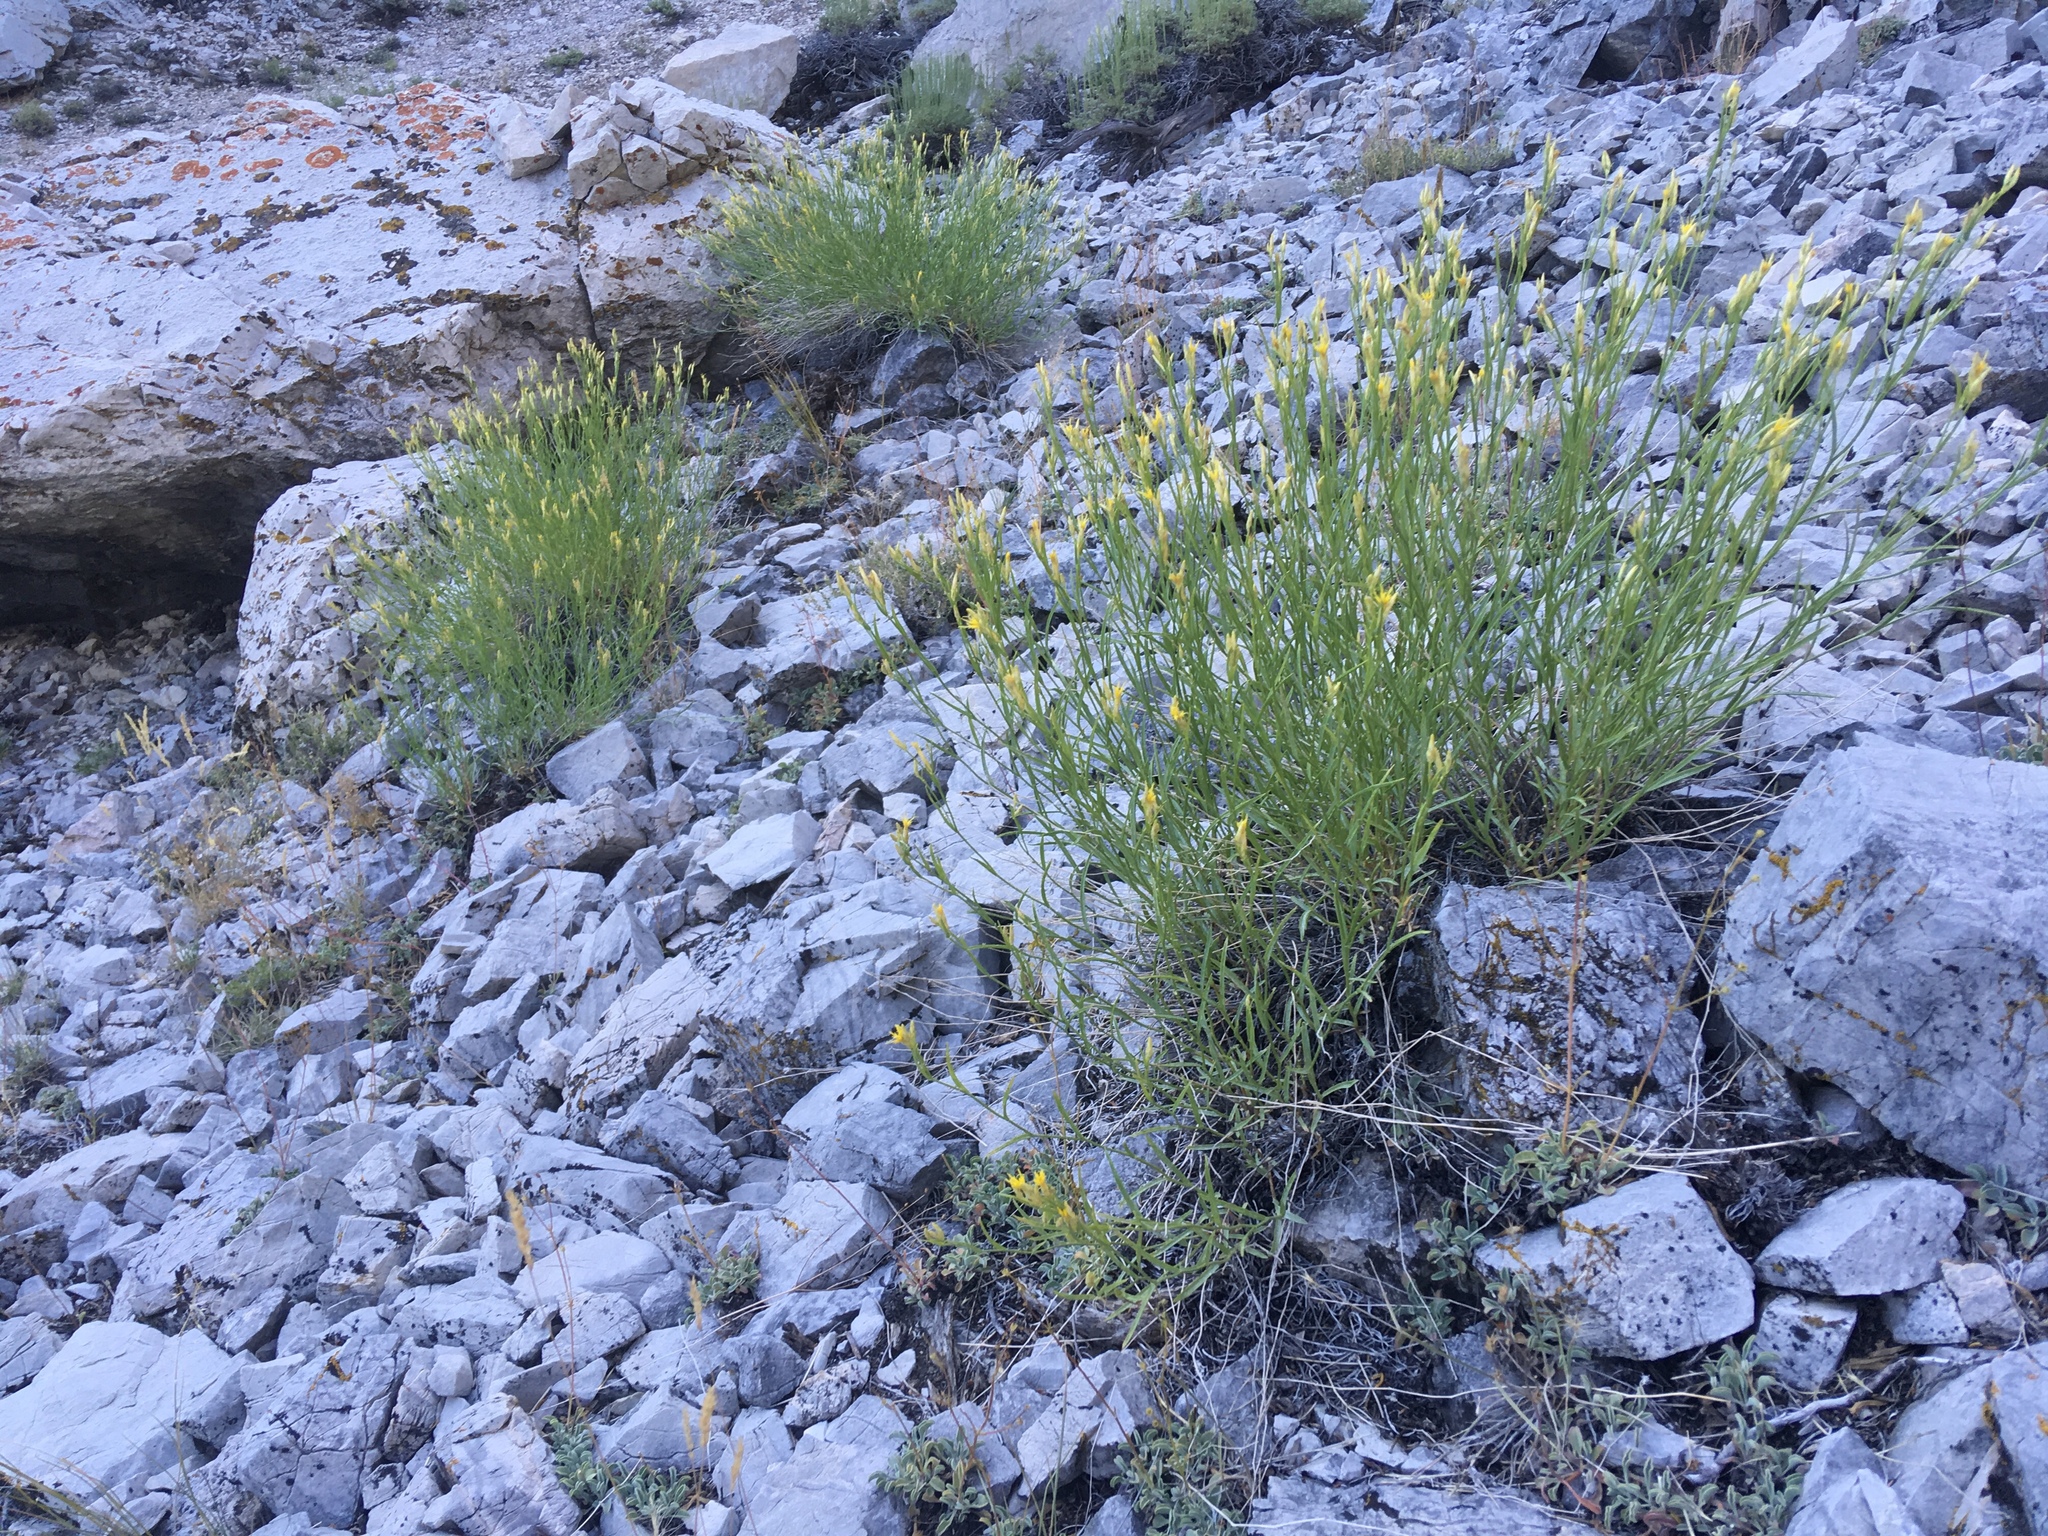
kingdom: Plantae
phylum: Tracheophyta
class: Magnoliopsida
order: Asterales
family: Asteraceae
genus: Cuniculotinus
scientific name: Cuniculotinus gramineus
